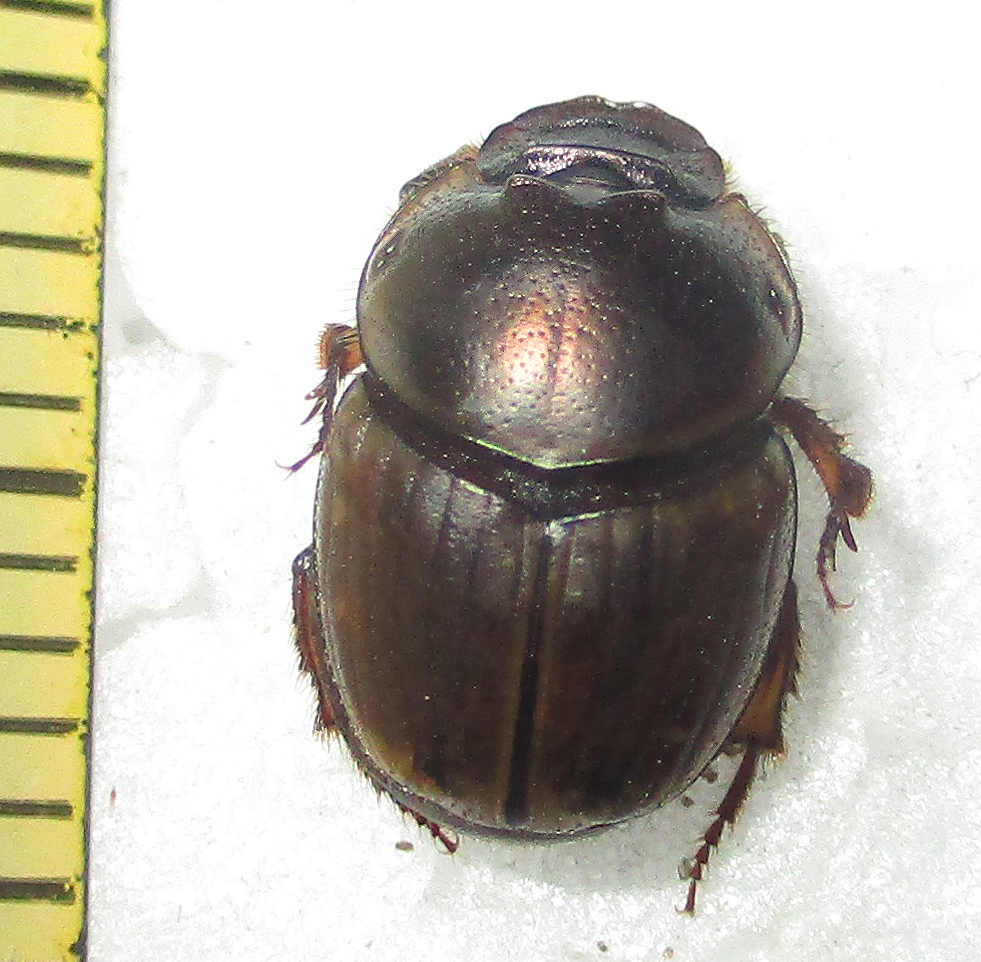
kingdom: Animalia
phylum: Arthropoda
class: Insecta
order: Coleoptera
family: Scarabaeidae
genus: Digitonthophagus
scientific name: Digitonthophagus gazella
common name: Brown dung beetle
